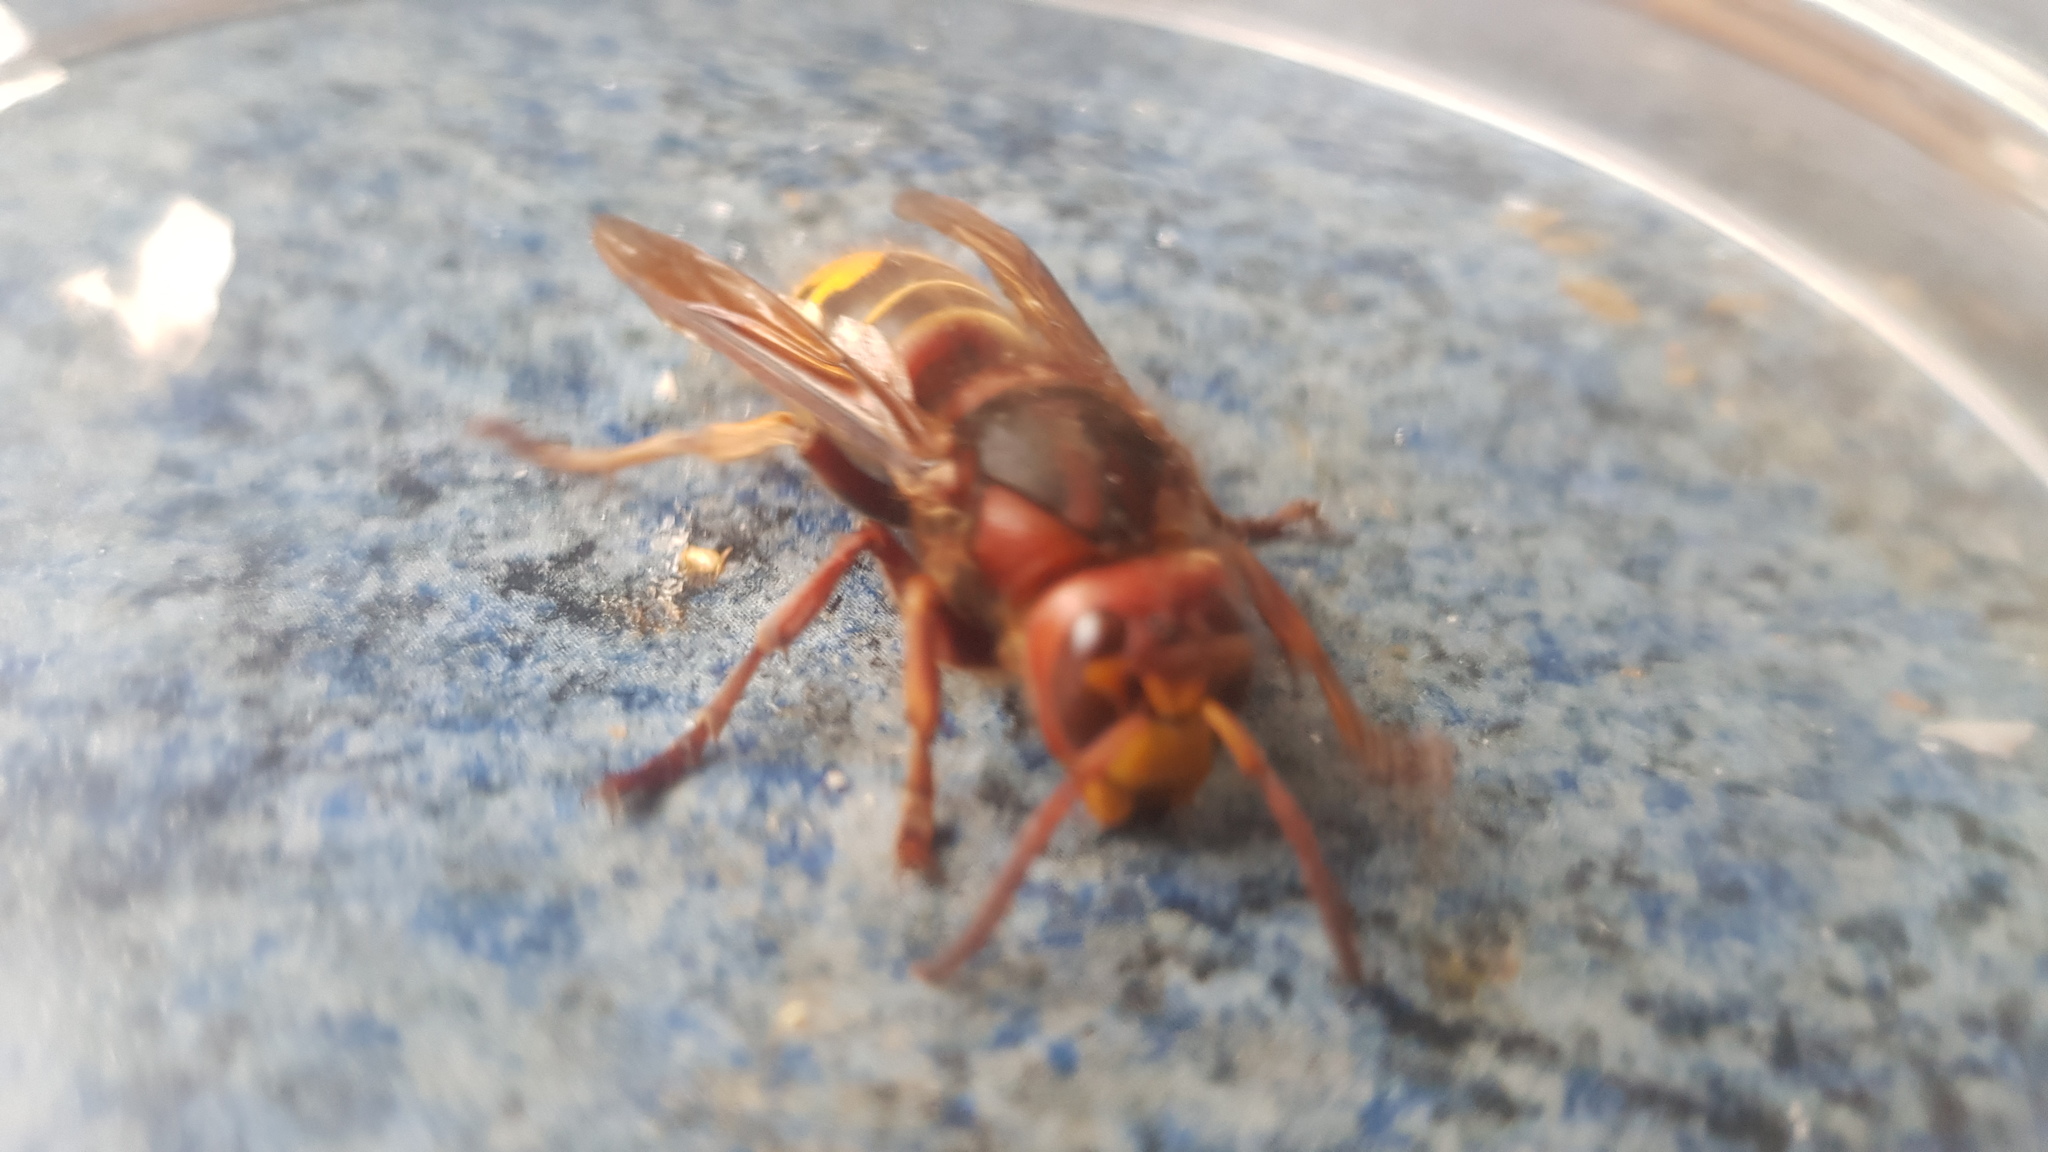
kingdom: Animalia
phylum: Arthropoda
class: Insecta
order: Hymenoptera
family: Vespidae
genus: Vespa
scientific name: Vespa crabro
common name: Hornet
